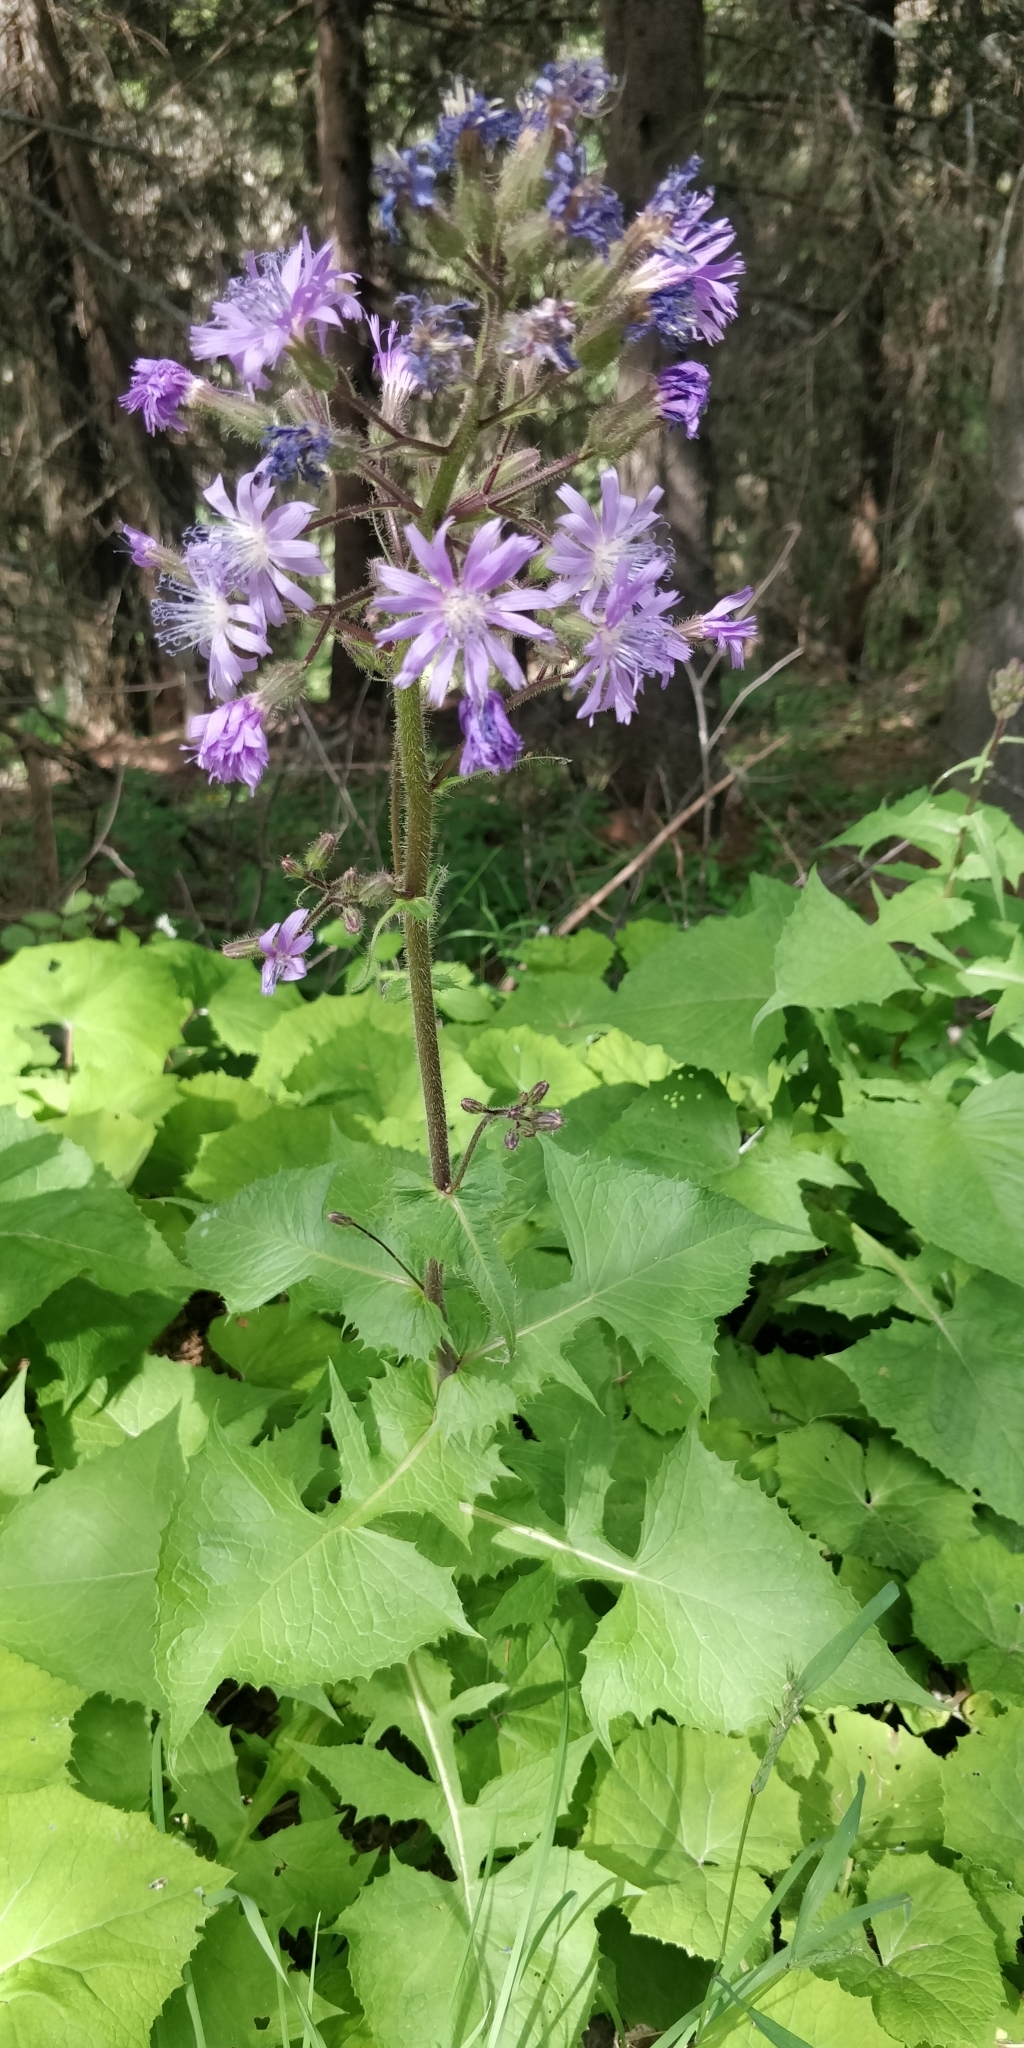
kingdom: Plantae
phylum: Tracheophyta
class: Magnoliopsida
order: Asterales
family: Asteraceae
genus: Cicerbita
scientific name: Cicerbita alpina
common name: Alpine blue-sow-thistle
